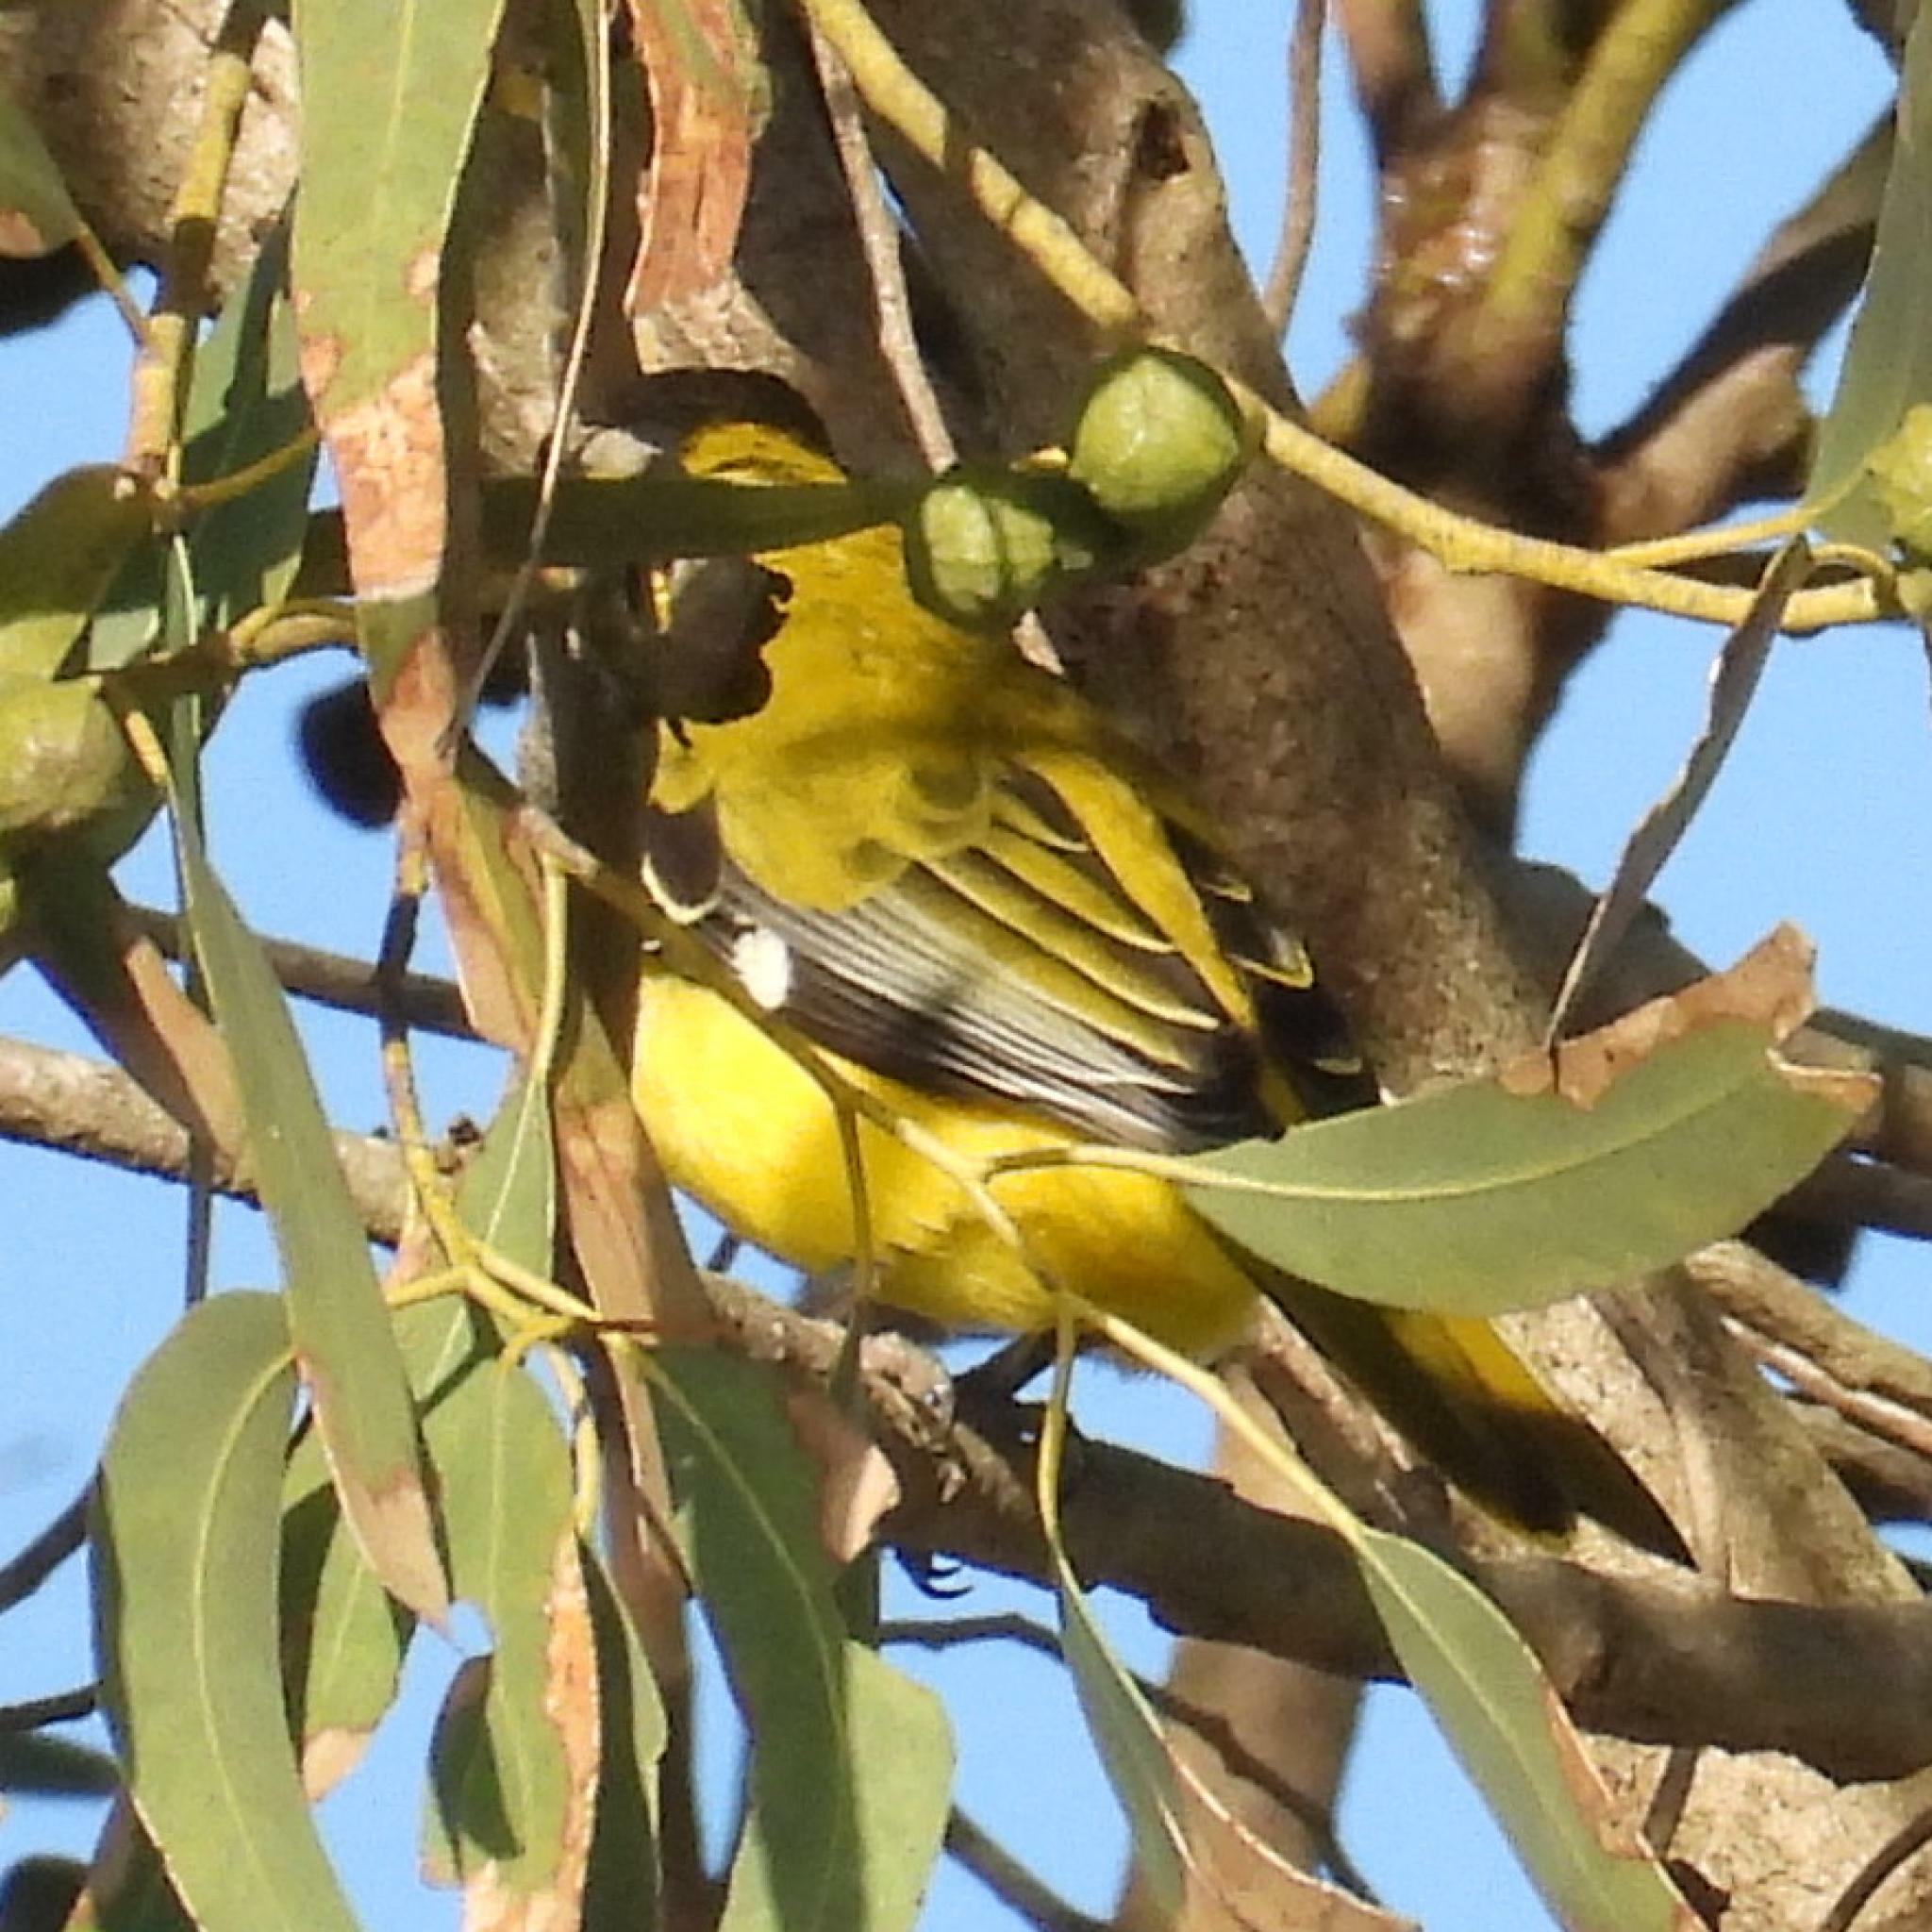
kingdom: Animalia
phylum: Chordata
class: Aves
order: Passeriformes
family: Oriolidae
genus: Oriolus
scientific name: Oriolus larvatus
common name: Black-headed oriole
